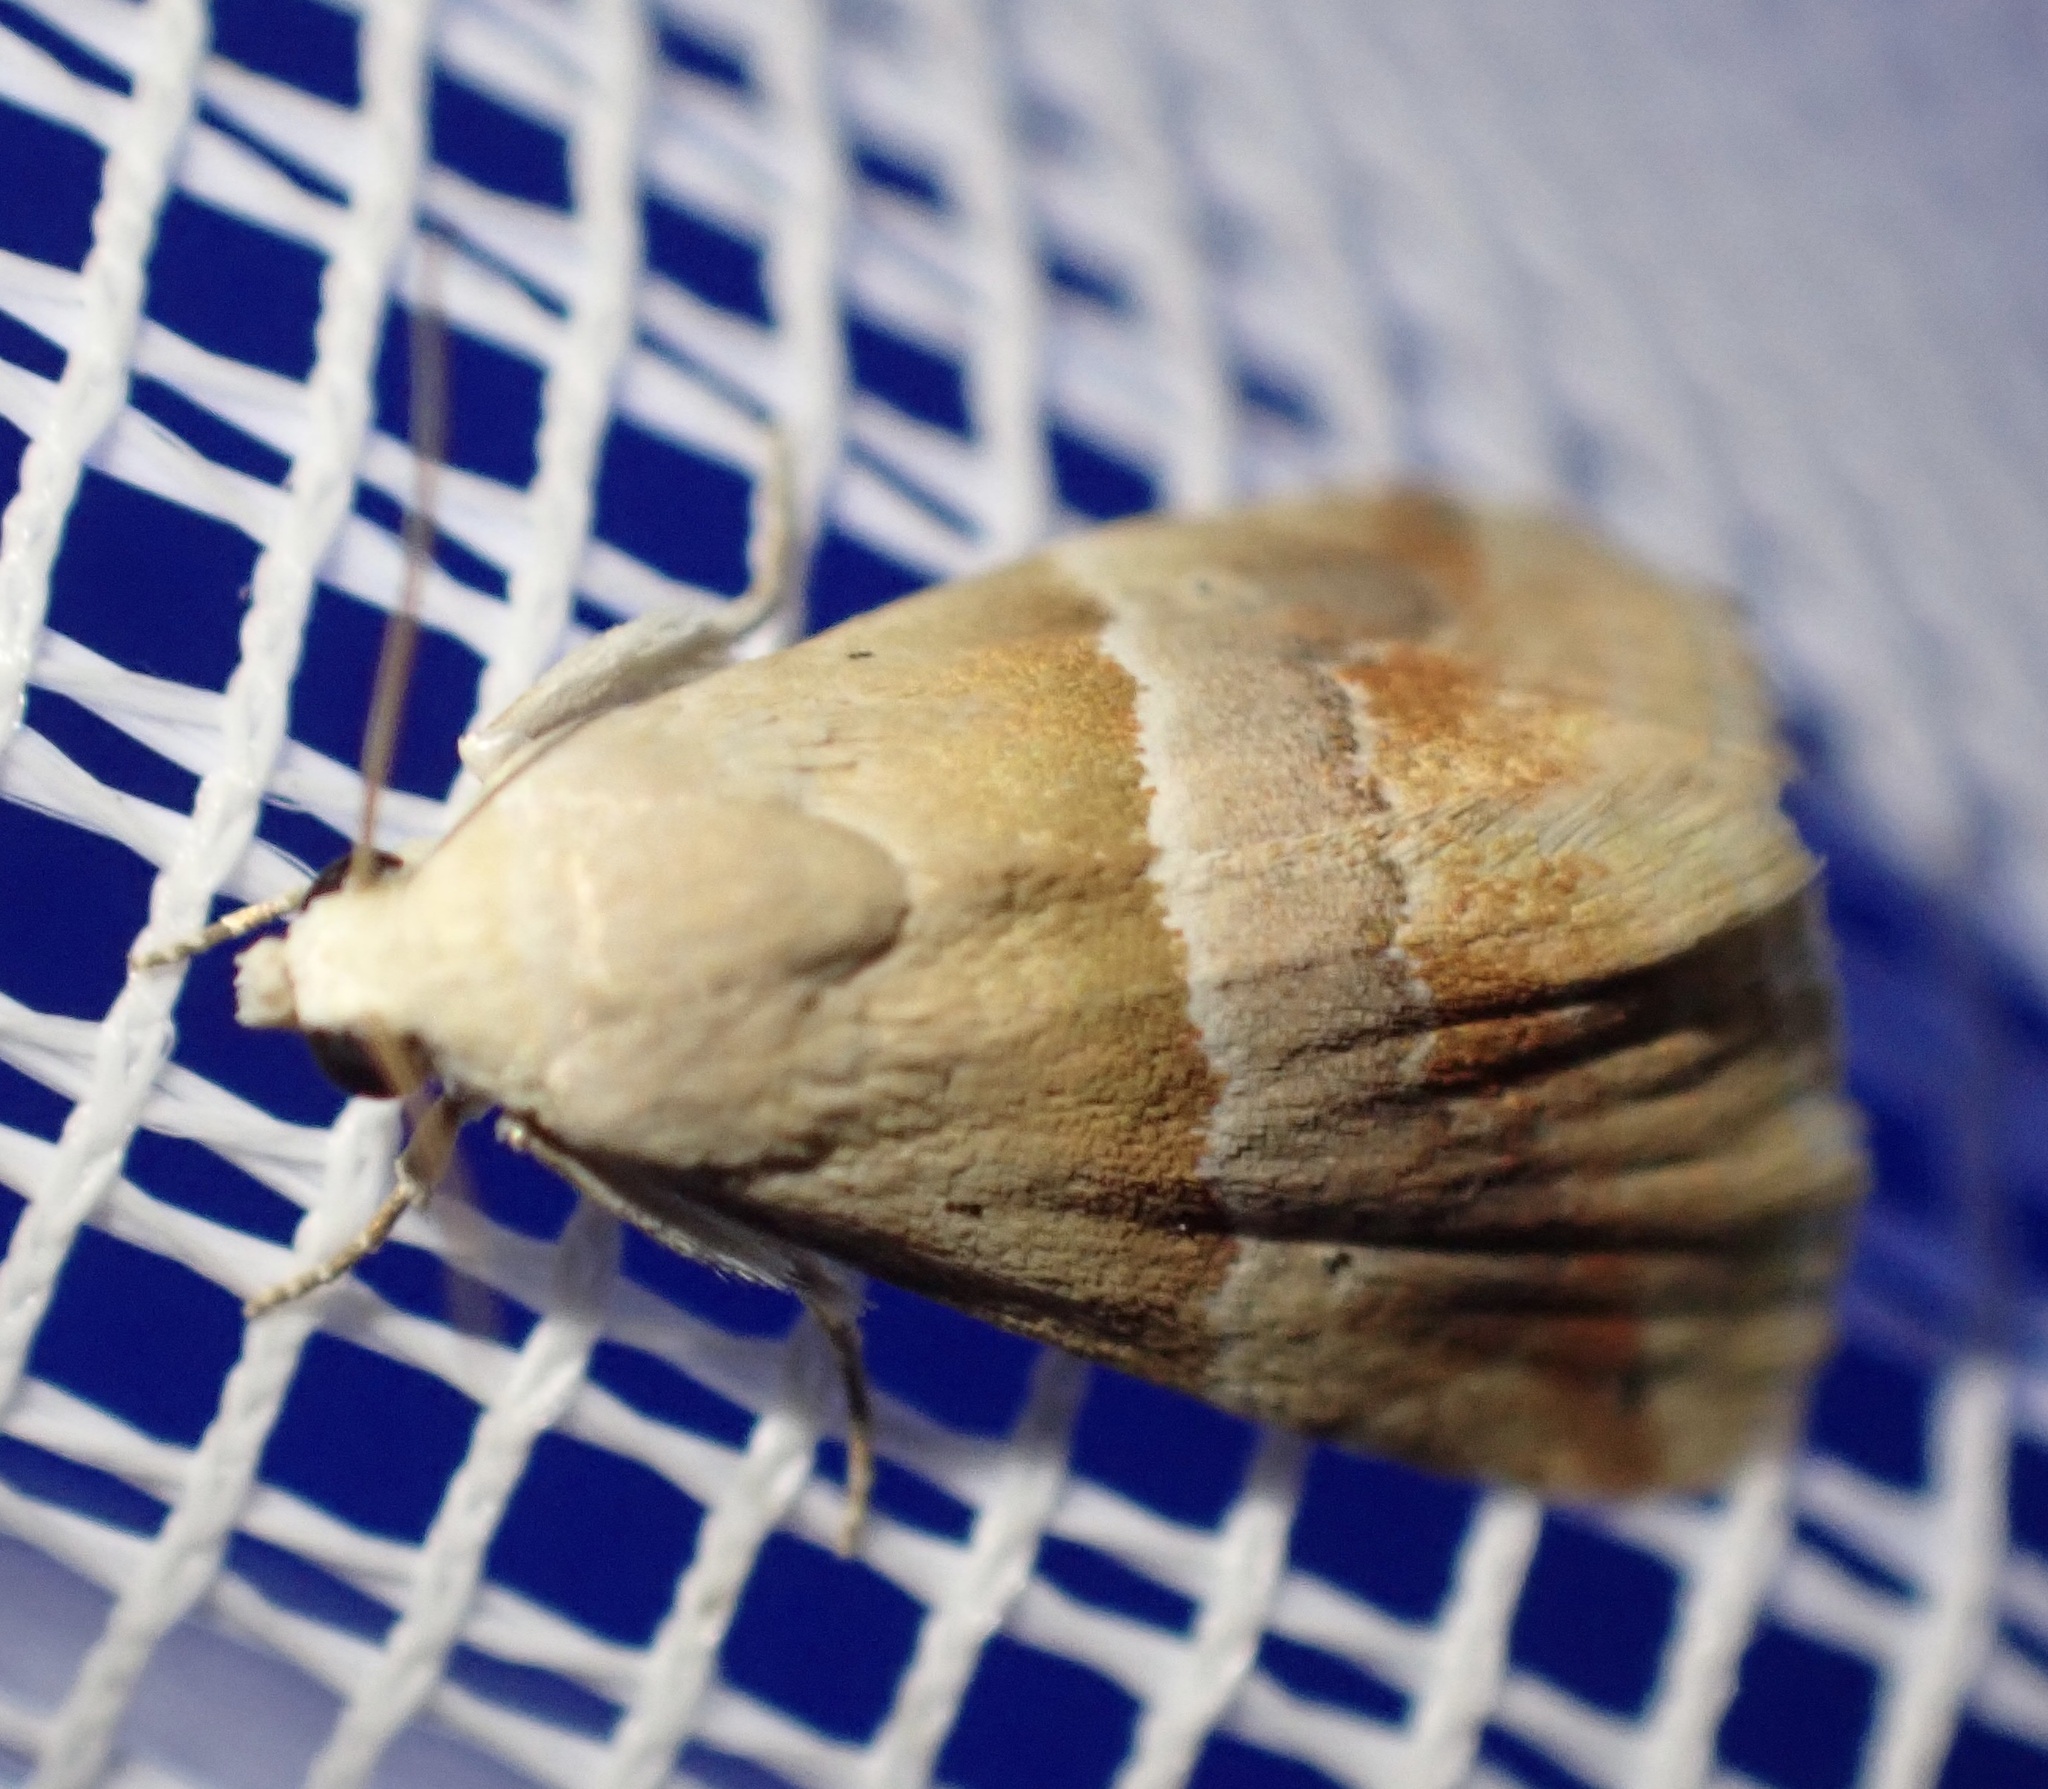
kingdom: Animalia
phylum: Arthropoda
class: Insecta
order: Lepidoptera
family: Noctuidae
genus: Eublemma
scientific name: Eublemma parva
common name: Small marbled
